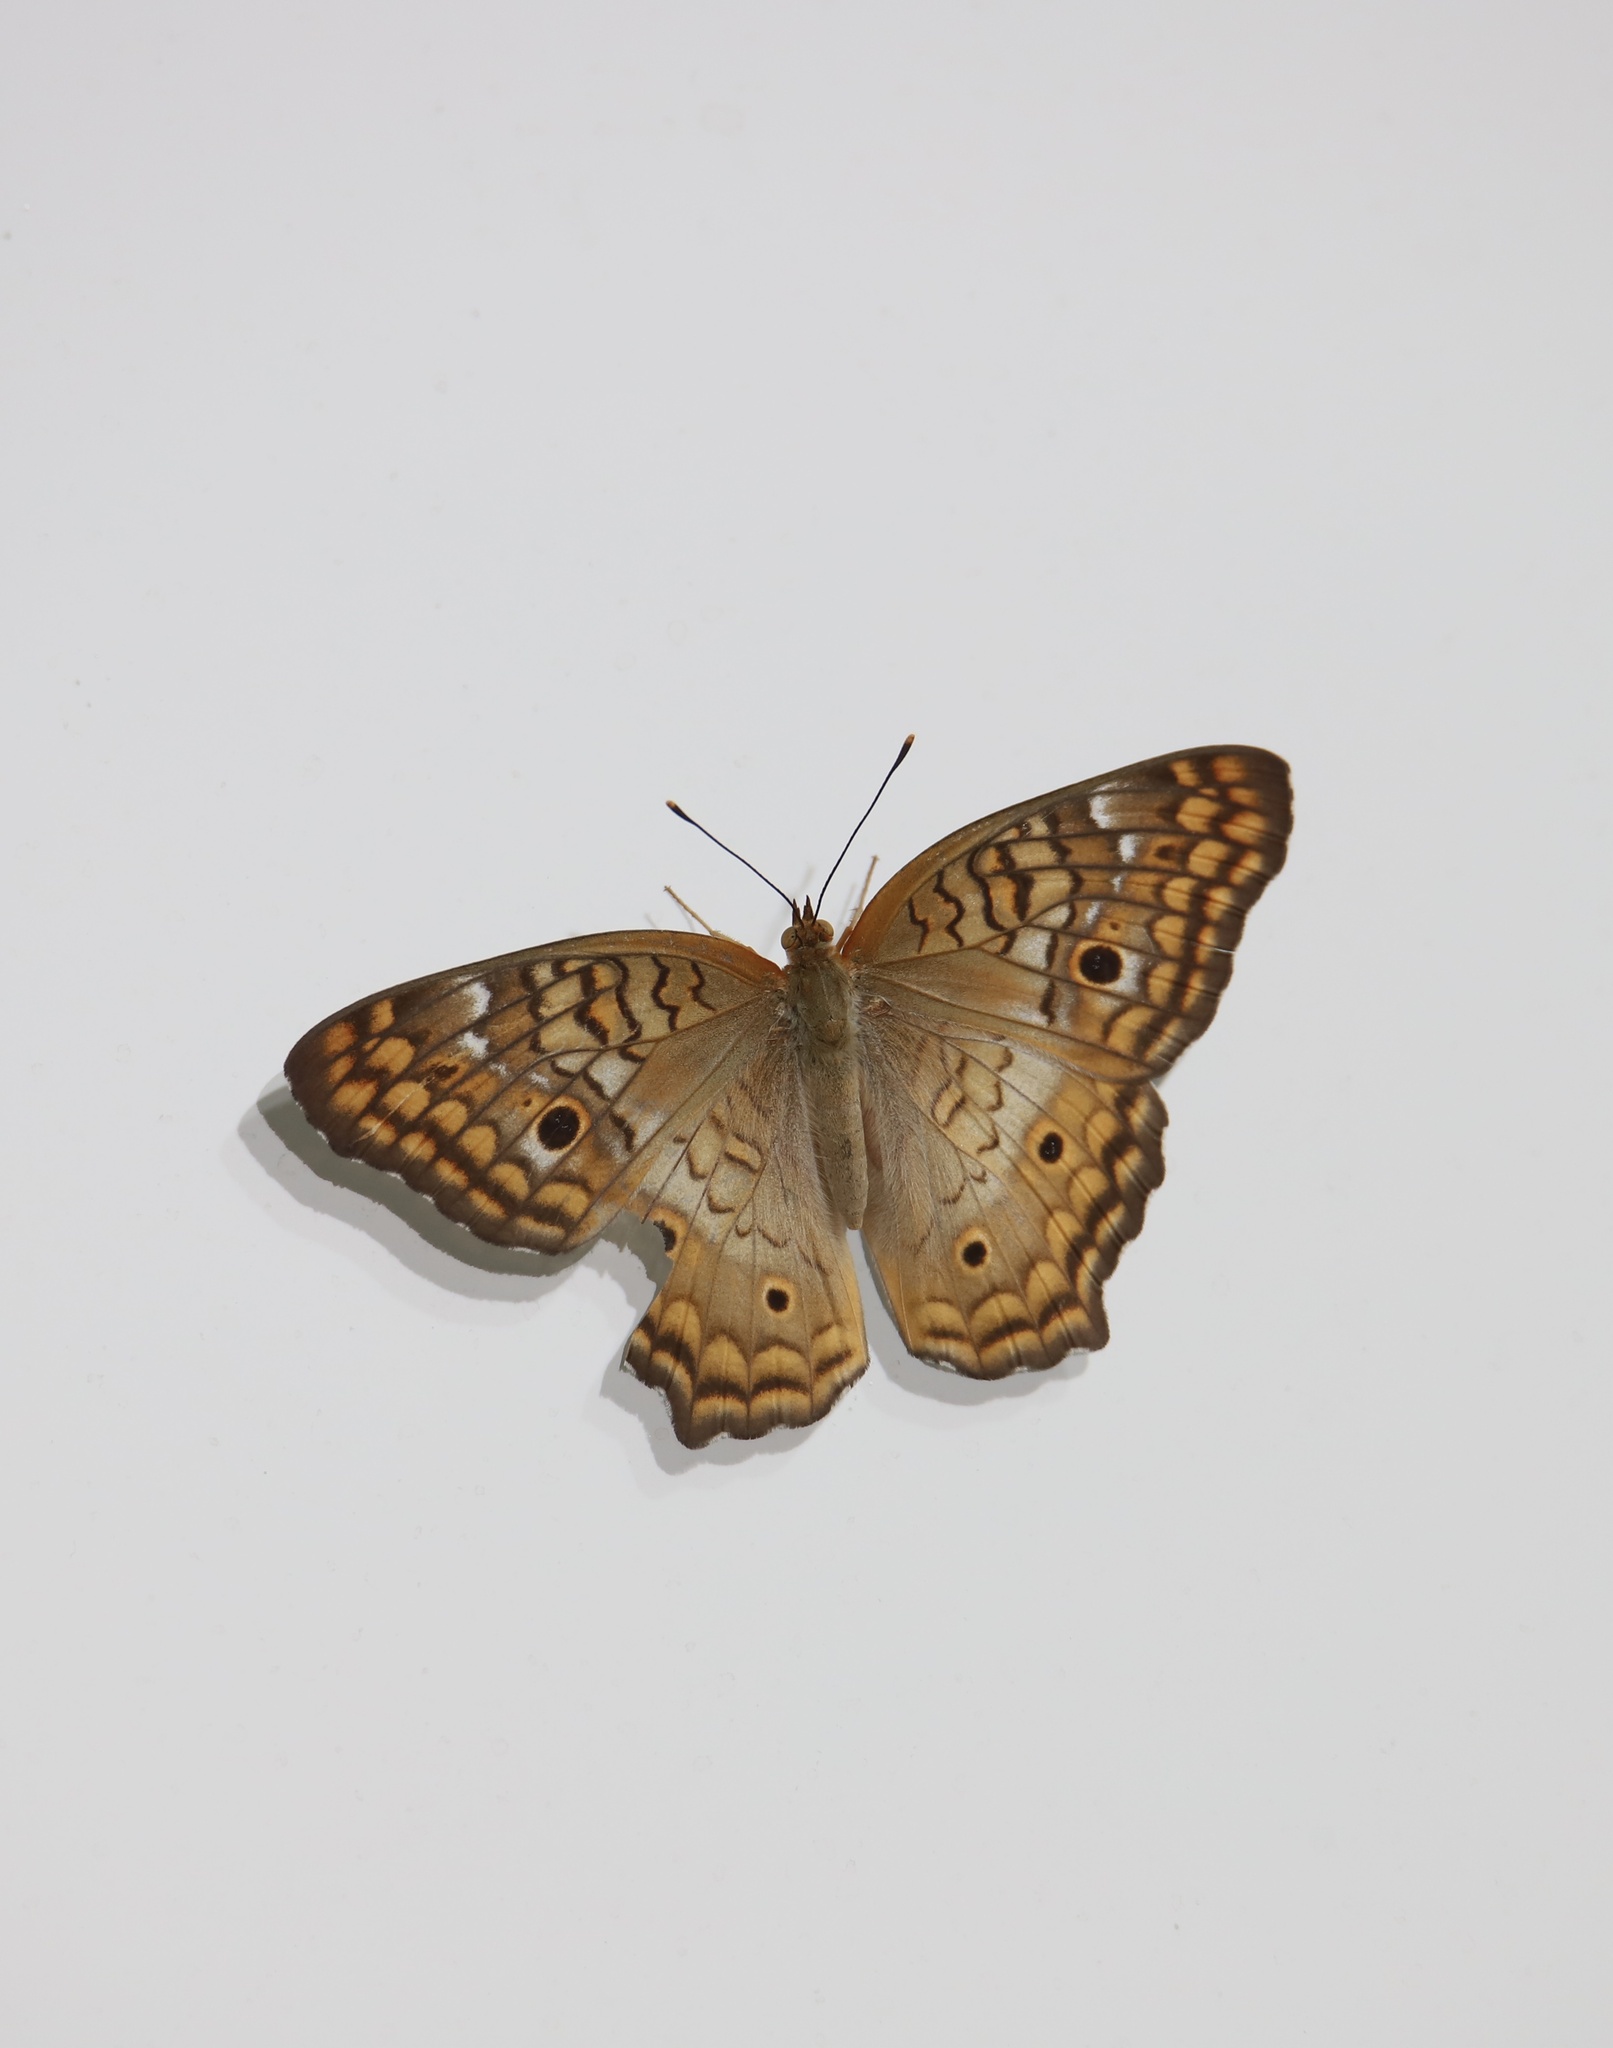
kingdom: Animalia
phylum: Arthropoda
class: Insecta
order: Lepidoptera
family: Nymphalidae
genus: Anartia
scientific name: Anartia jatrophae
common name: White peacock
